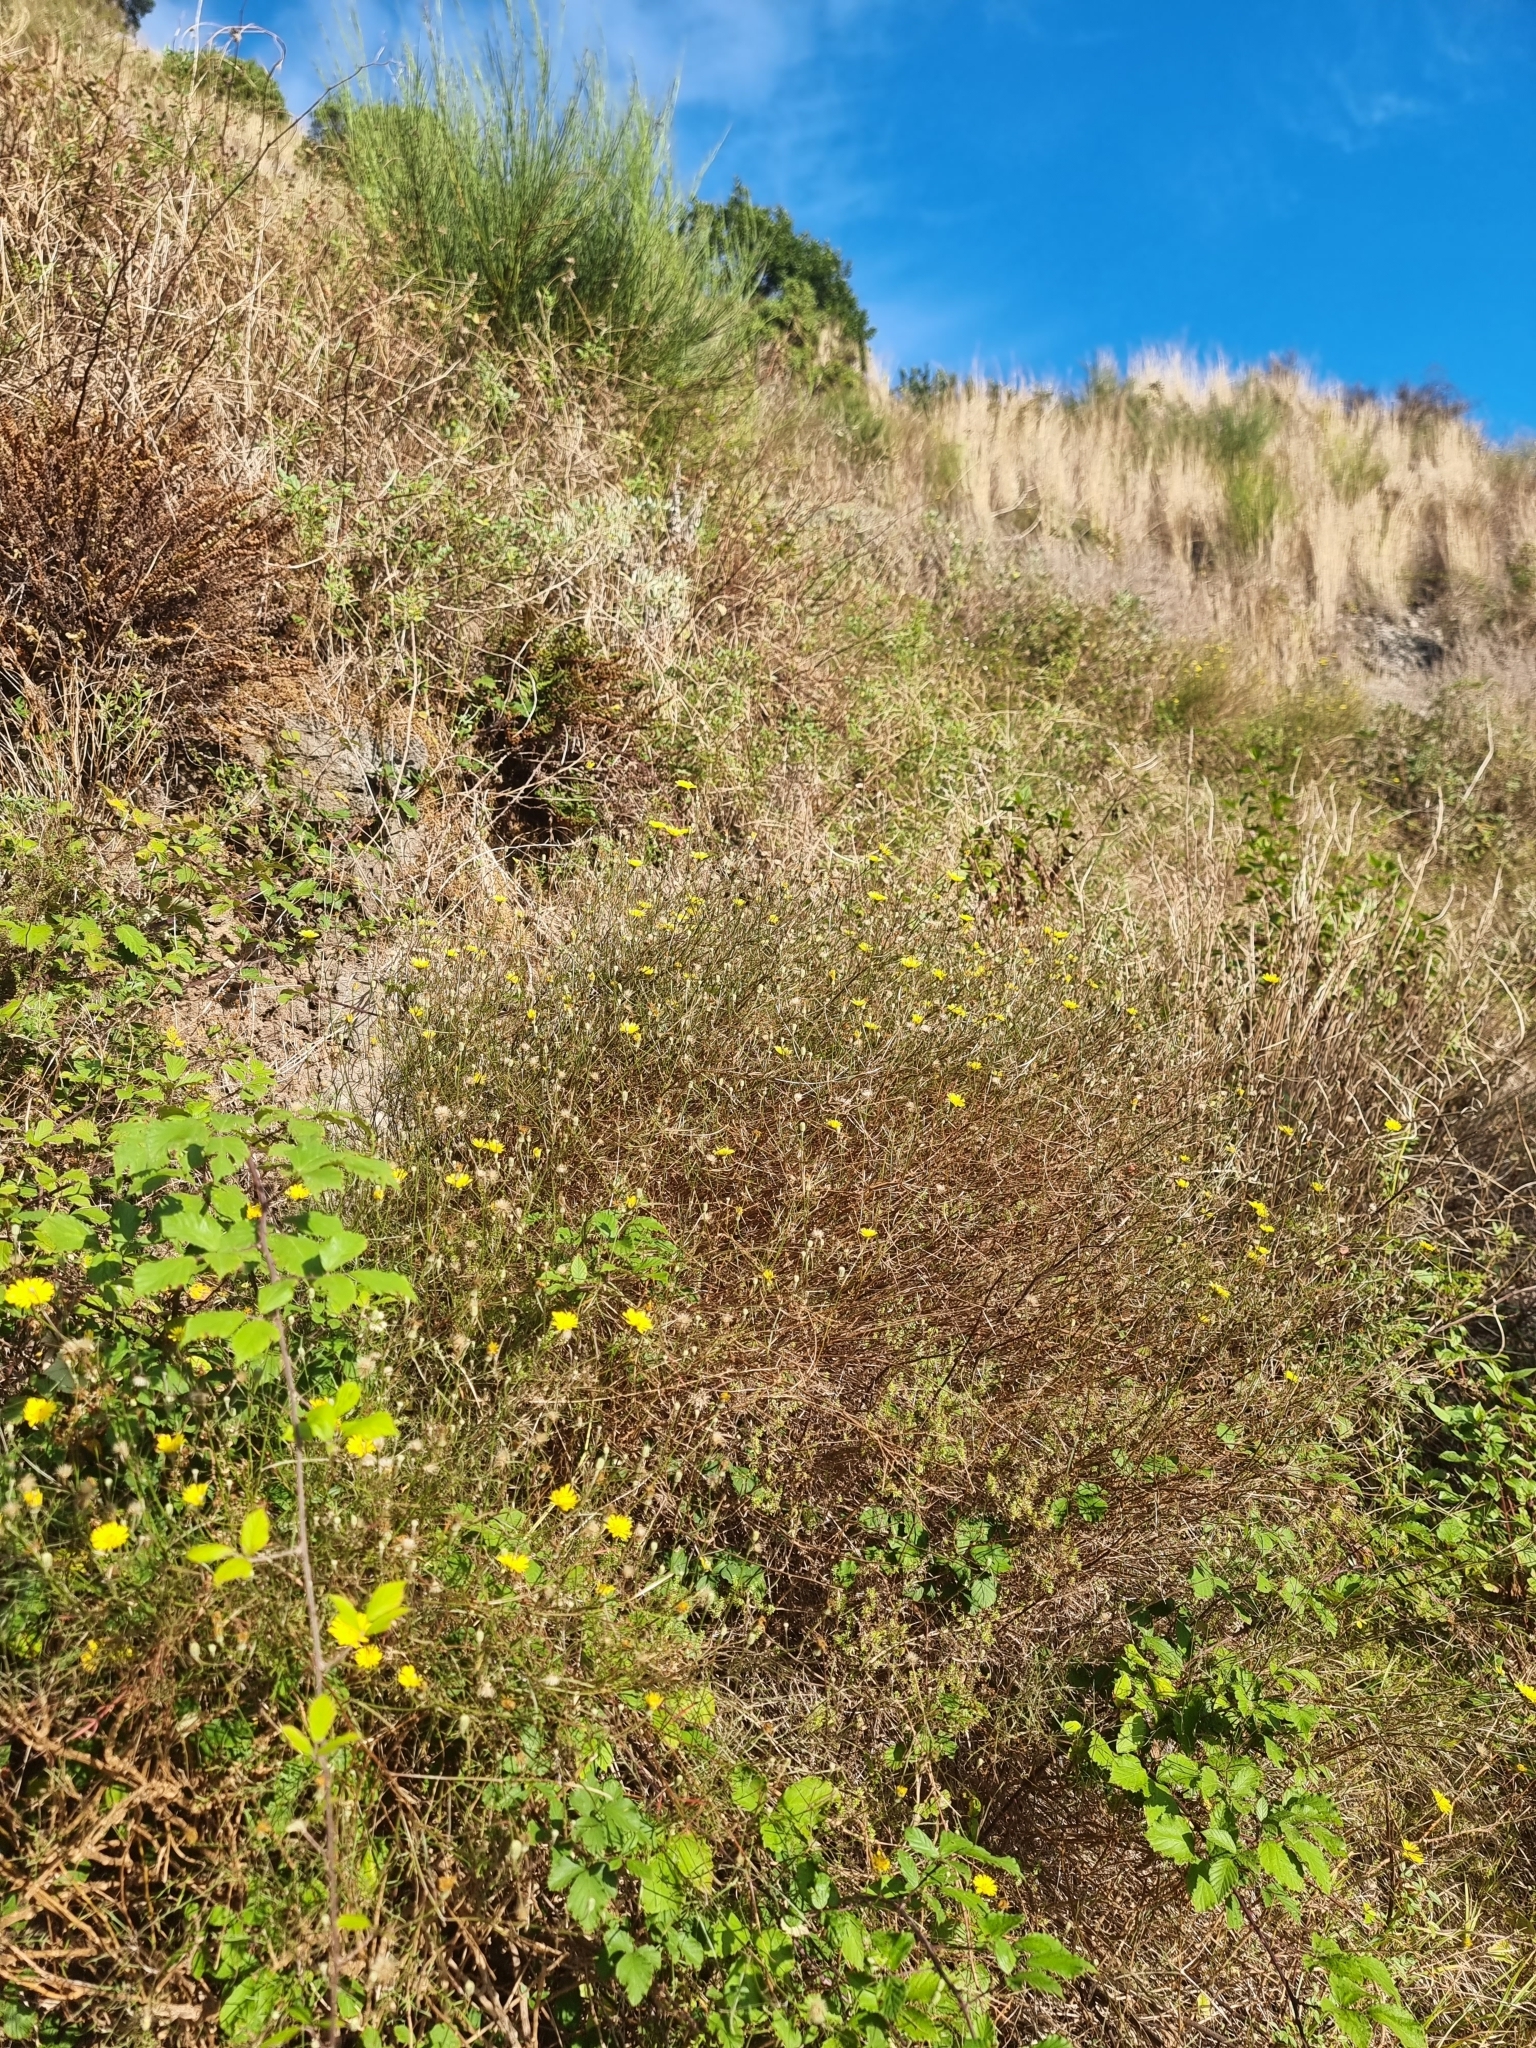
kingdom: Plantae
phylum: Tracheophyta
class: Magnoliopsida
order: Asterales
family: Asteraceae
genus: Tolpis
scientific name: Tolpis succulenta
